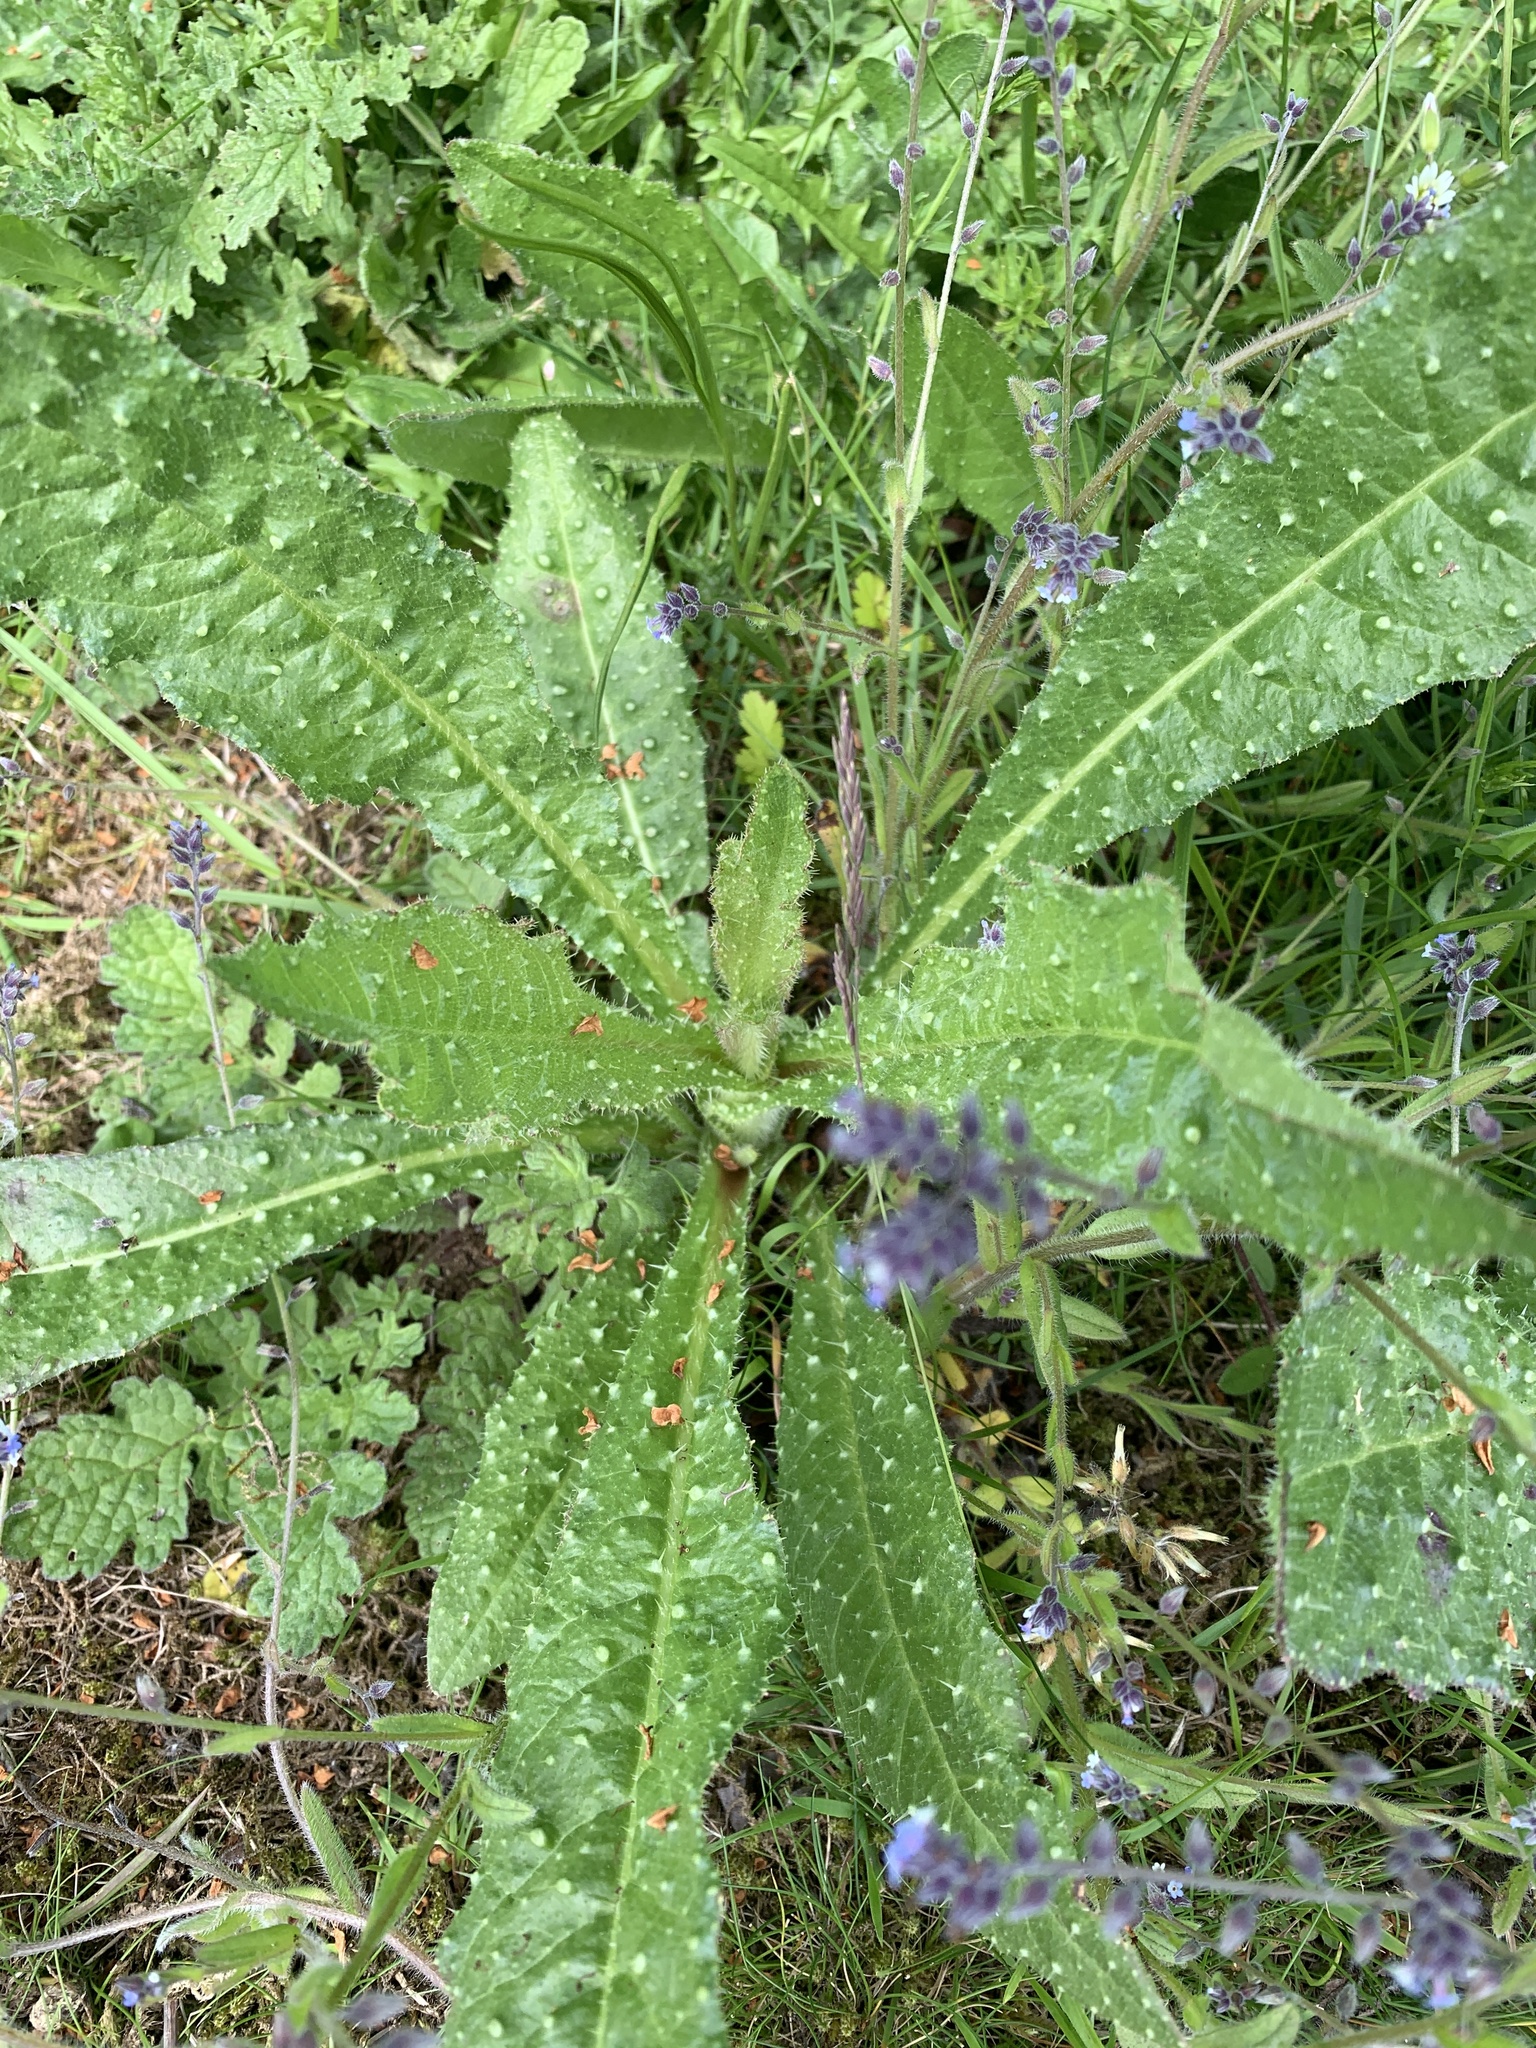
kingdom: Plantae
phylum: Tracheophyta
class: Magnoliopsida
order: Asterales
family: Asteraceae
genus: Helminthotheca
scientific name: Helminthotheca echioides
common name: Ox-tongue
